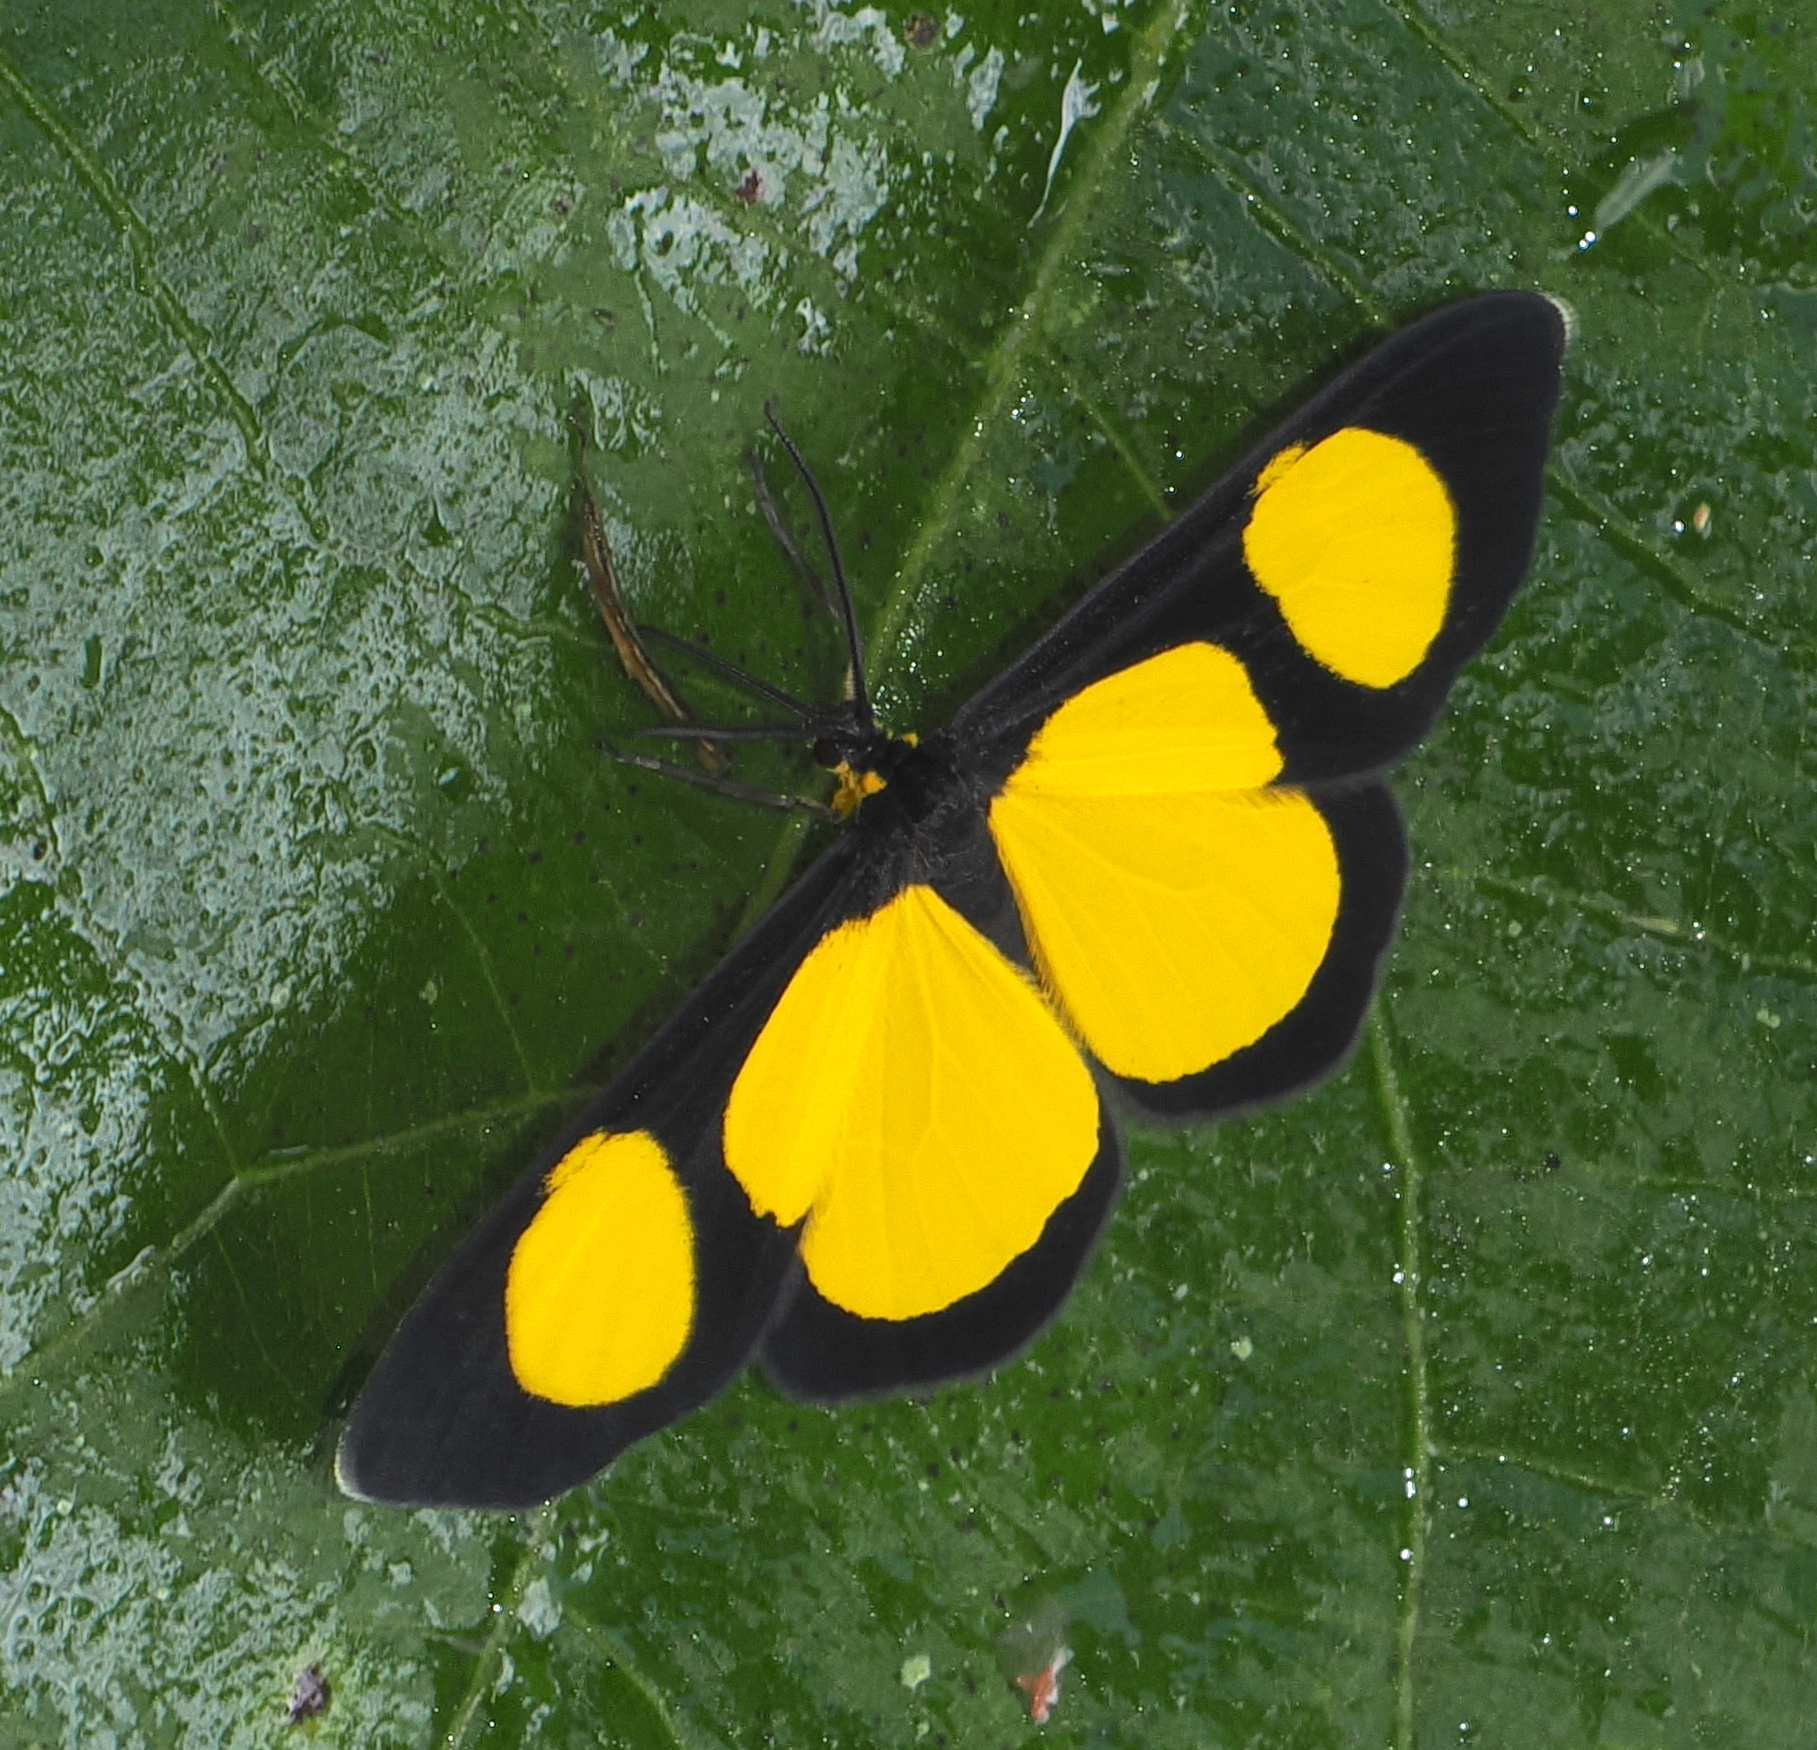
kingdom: Animalia
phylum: Arthropoda
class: Insecta
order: Lepidoptera
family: Geometridae
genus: Cyllopoda
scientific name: Cyllopoda jatropharia
